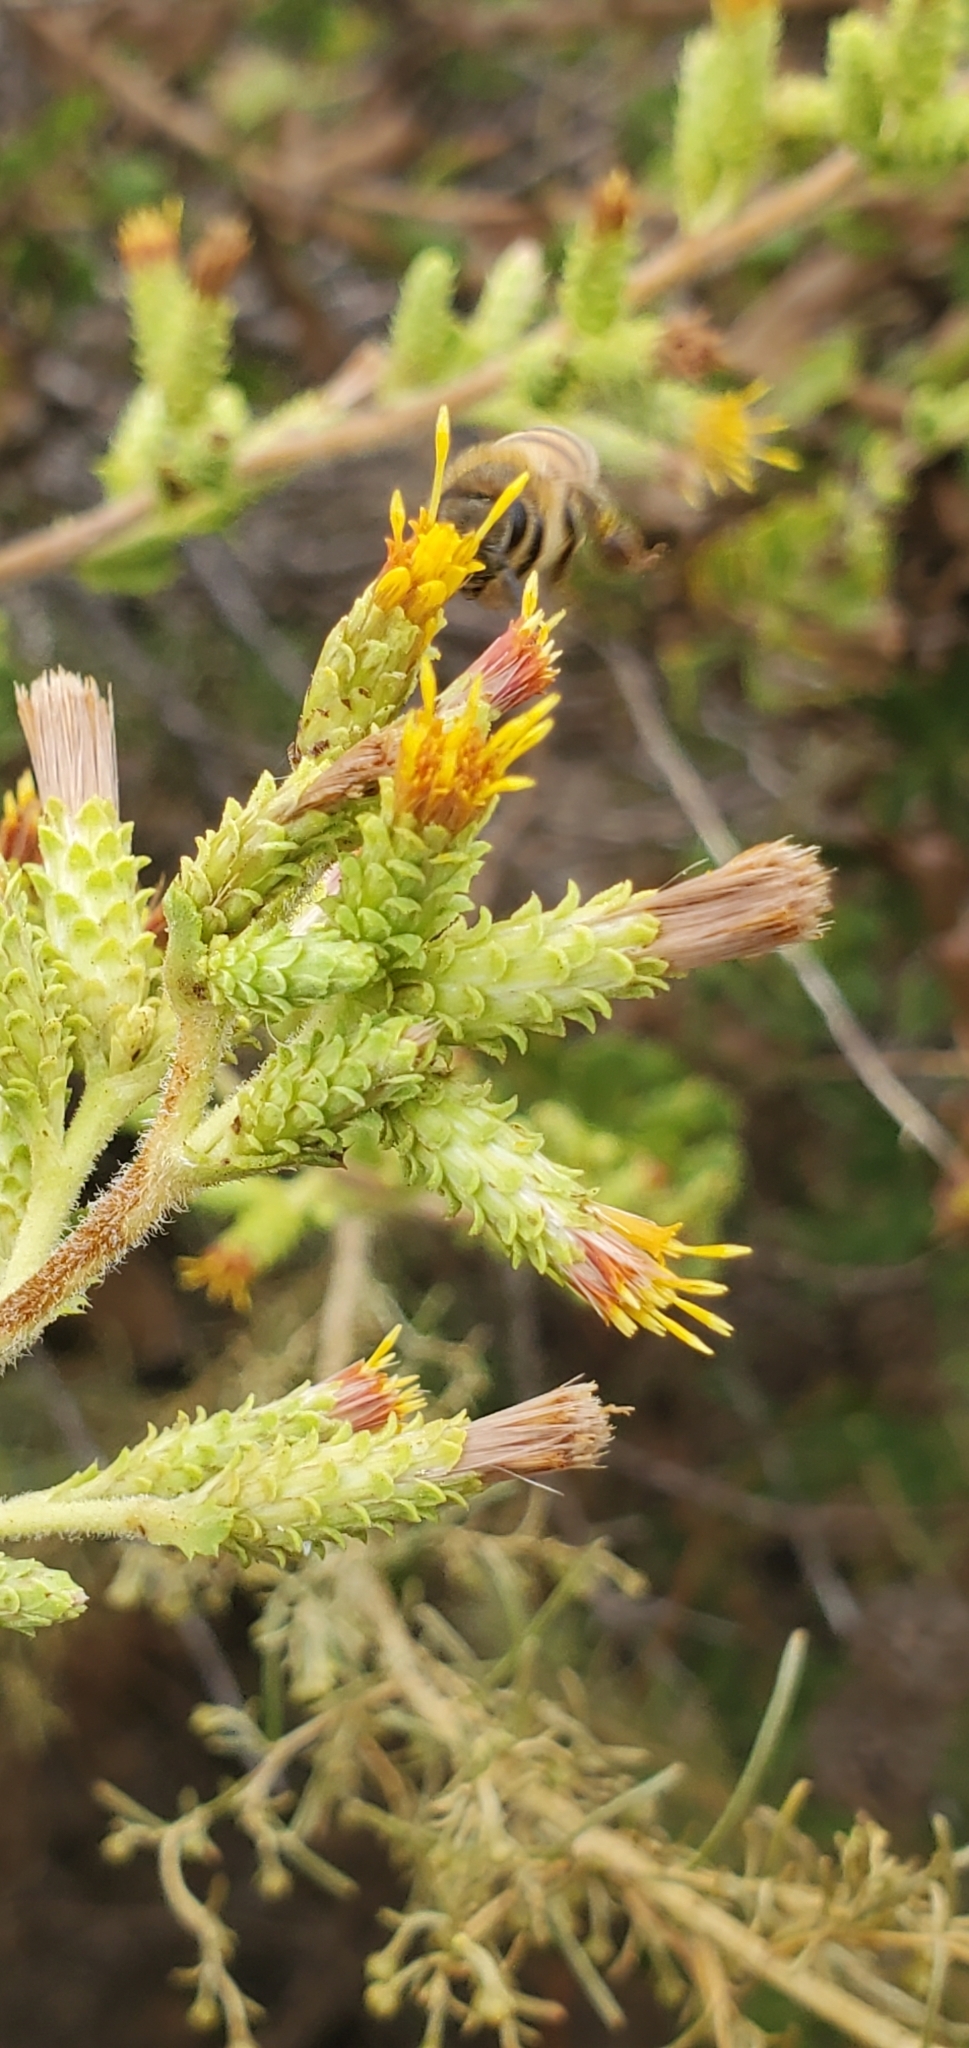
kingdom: Plantae
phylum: Tracheophyta
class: Magnoliopsida
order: Asterales
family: Asteraceae
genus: Hazardia
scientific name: Hazardia squarrosa
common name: Saw-tooth goldenbush
